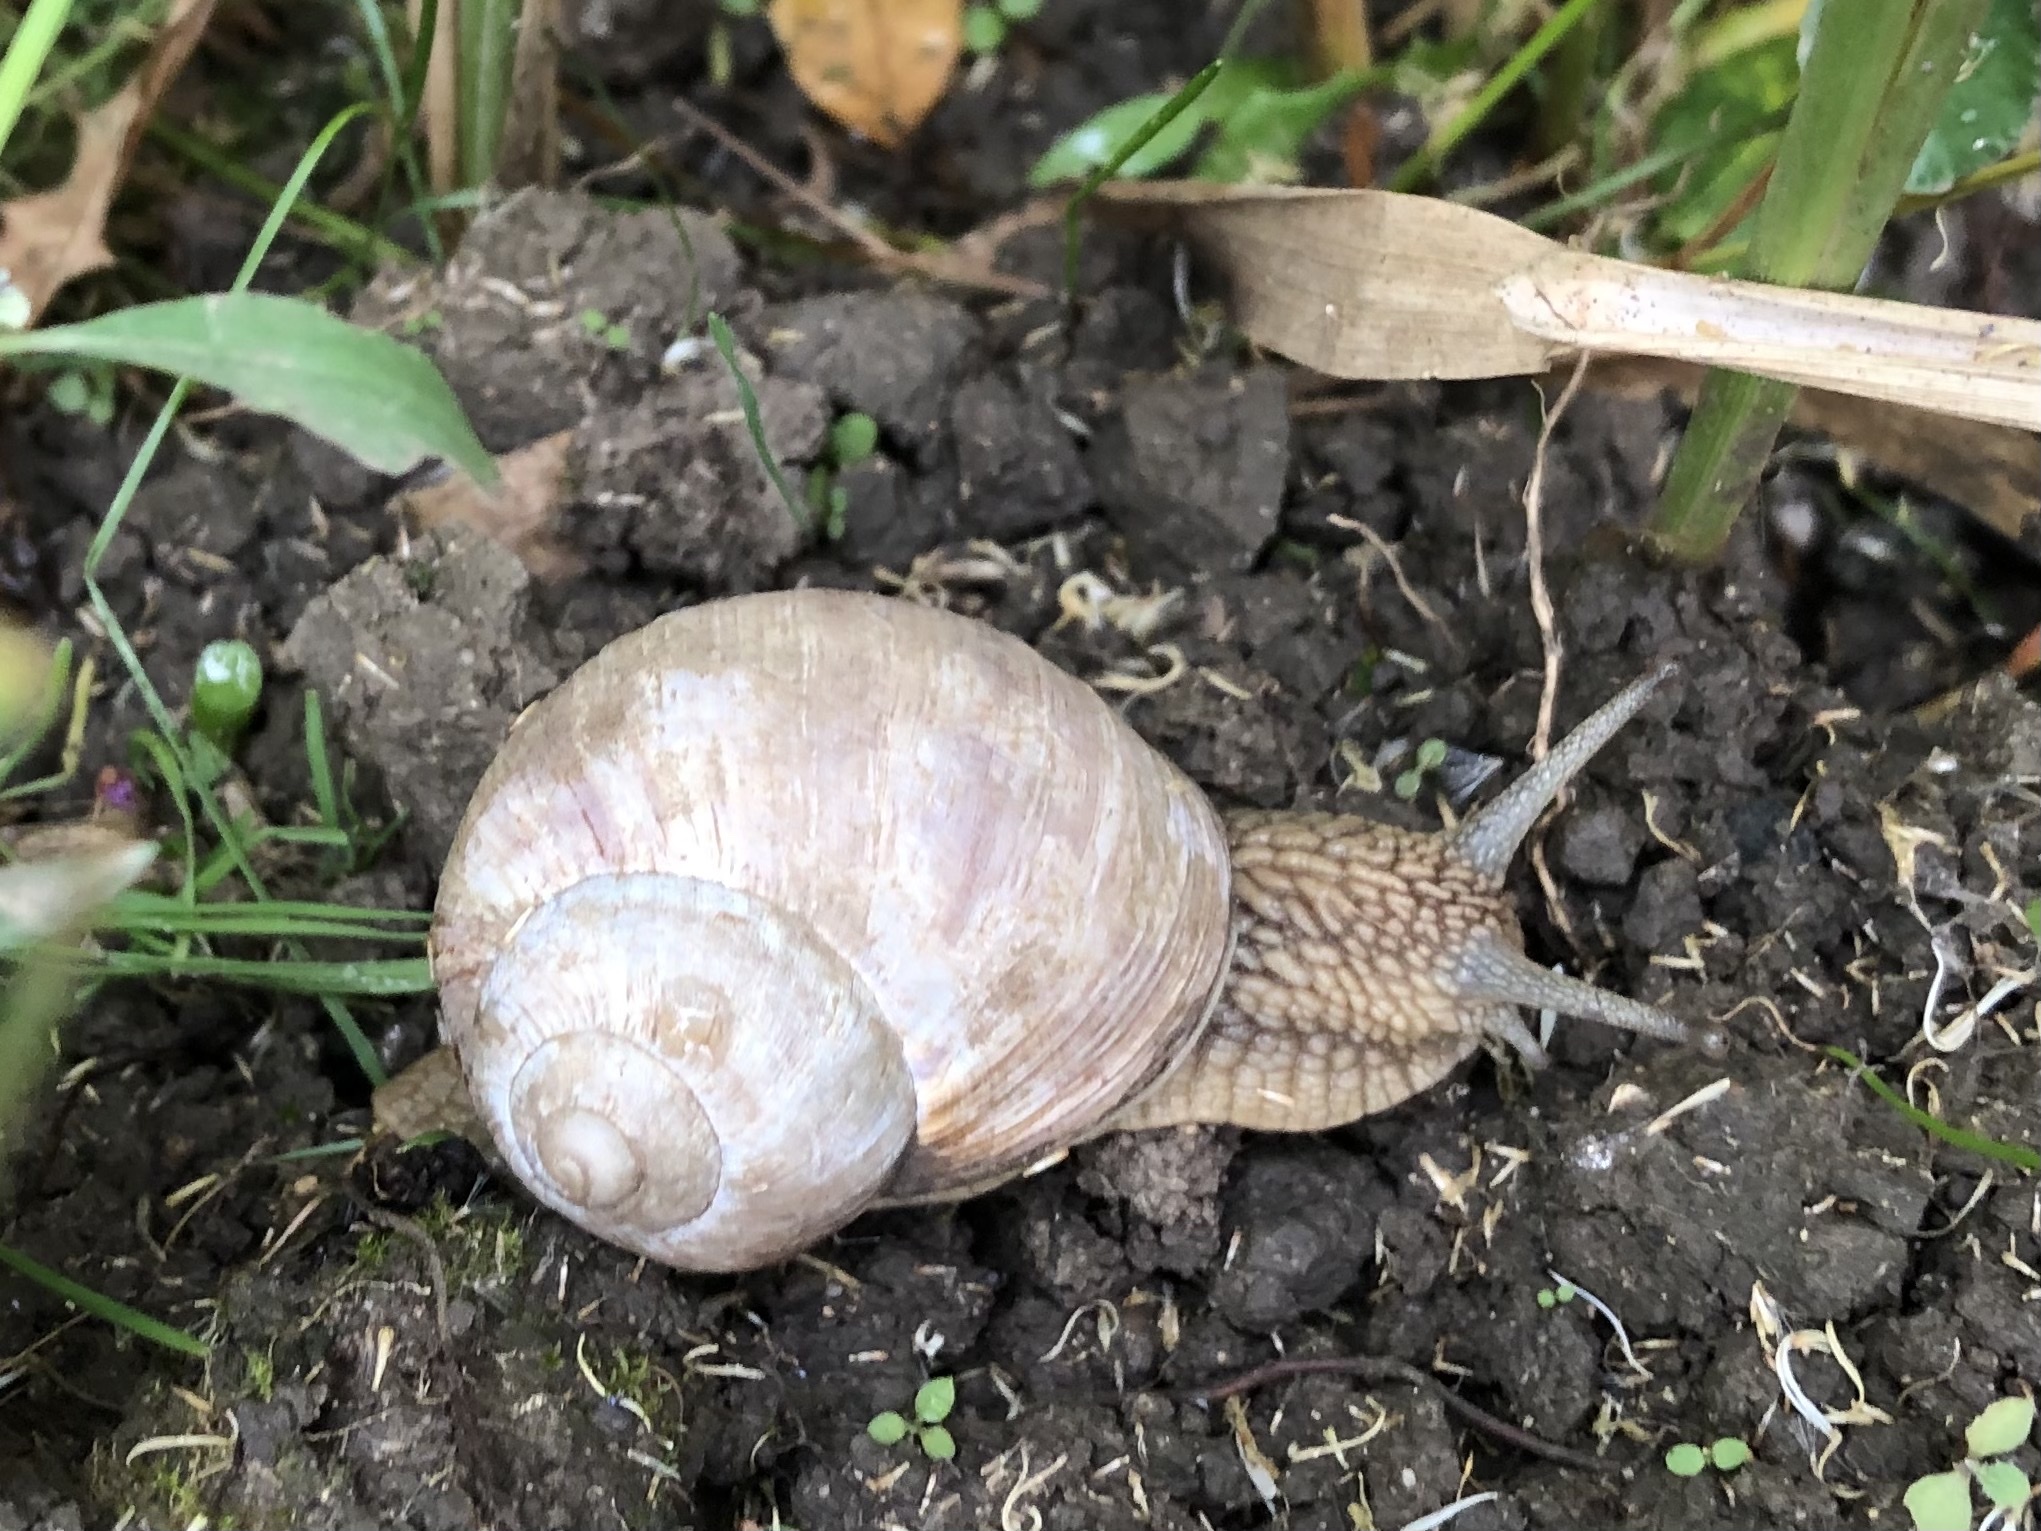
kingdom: Animalia
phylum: Mollusca
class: Gastropoda
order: Stylommatophora
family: Helicidae
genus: Helix
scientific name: Helix pomatia
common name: Roman snail
